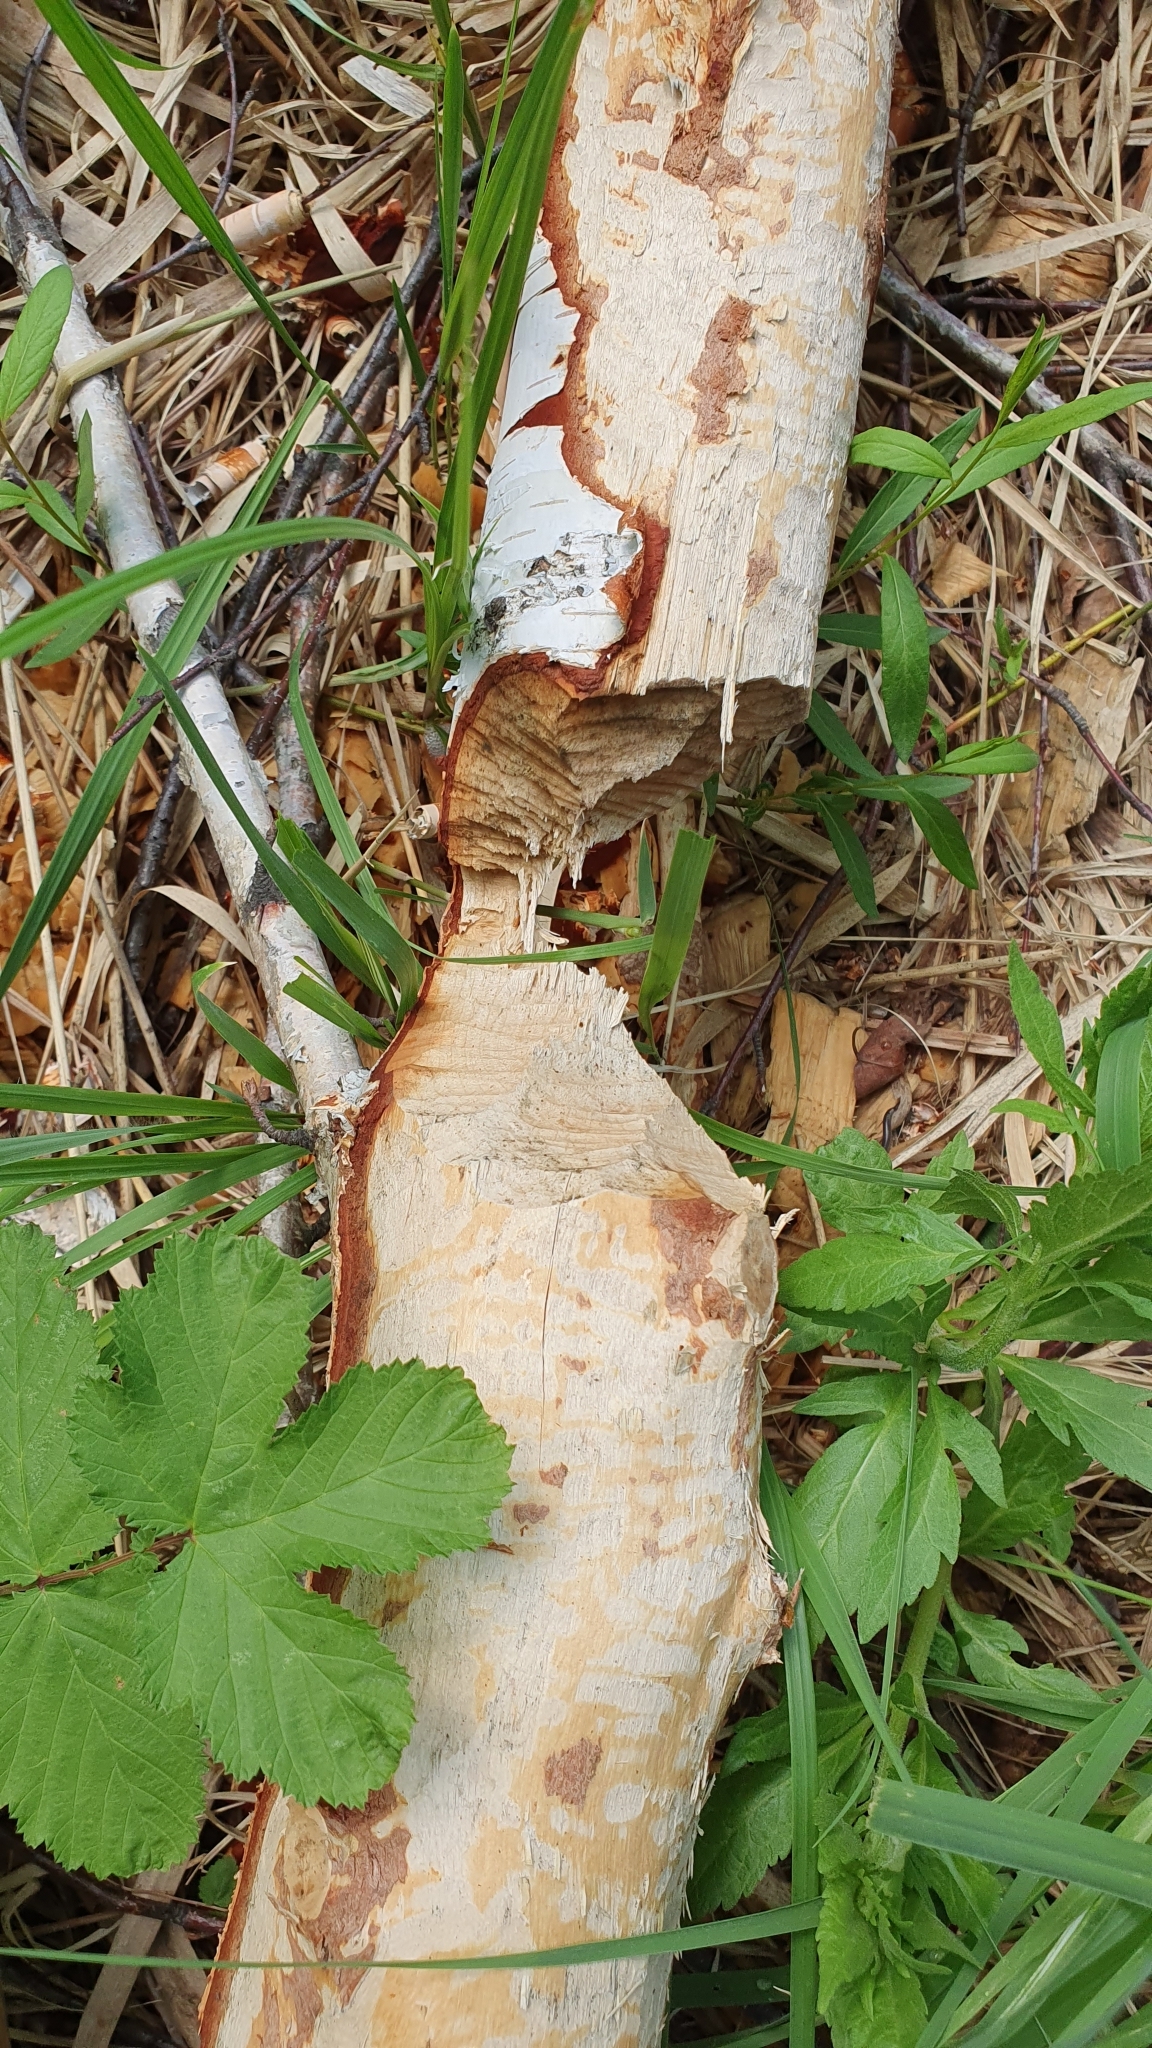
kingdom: Animalia
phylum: Chordata
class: Mammalia
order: Rodentia
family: Castoridae
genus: Castor
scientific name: Castor fiber
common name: Eurasian beaver
